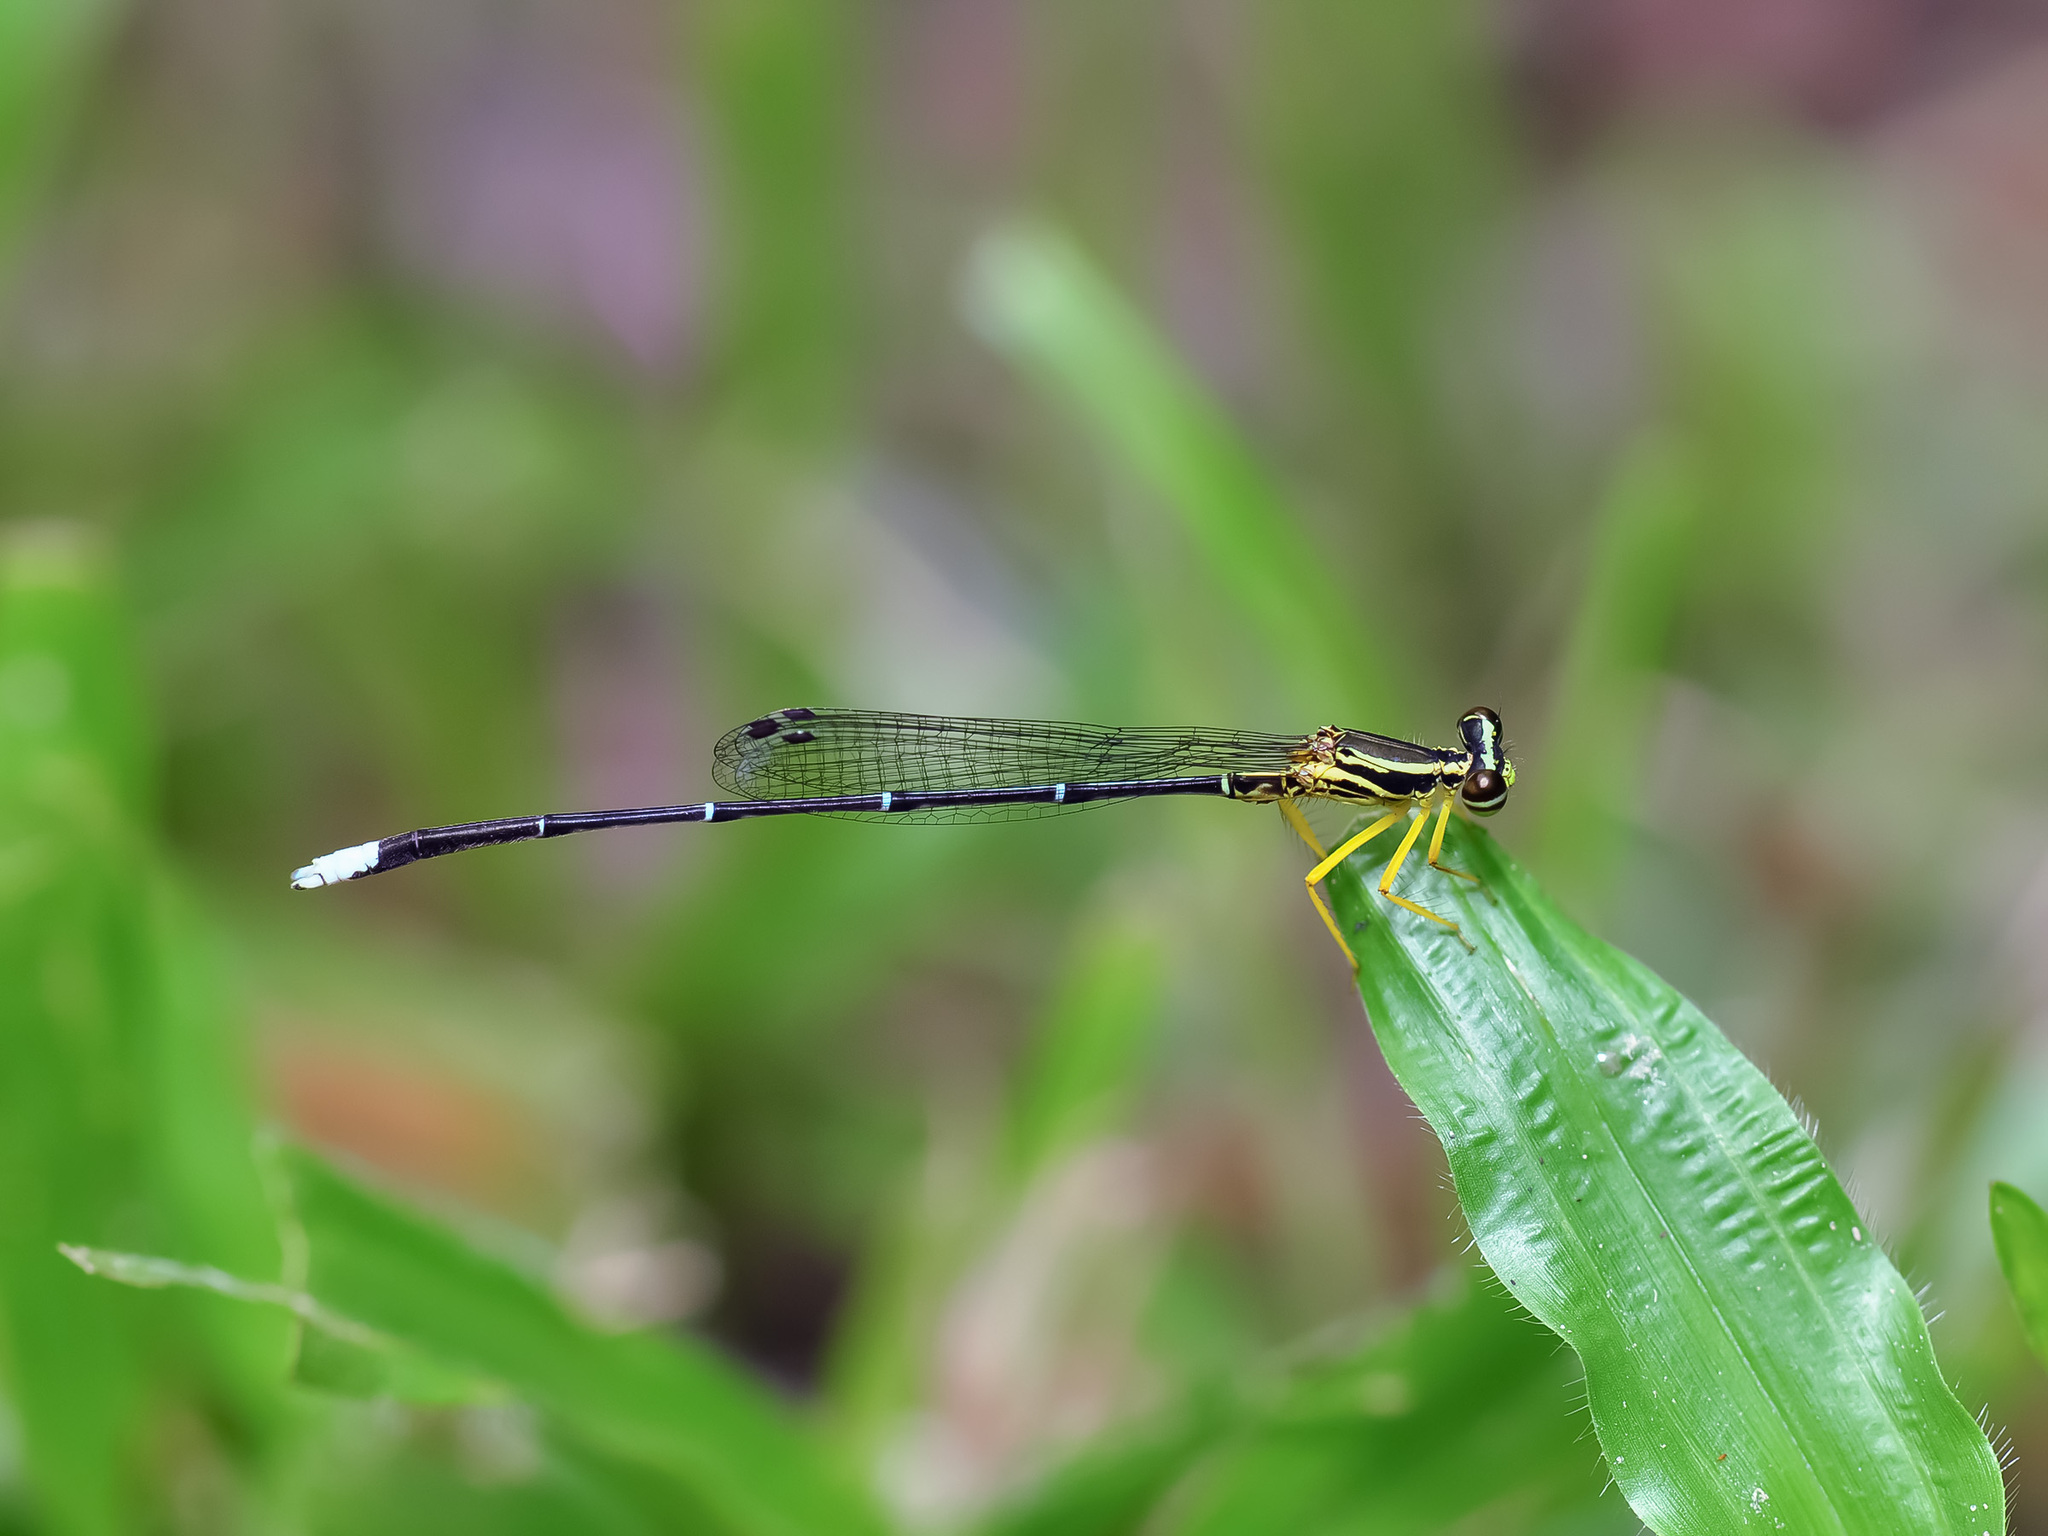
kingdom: Animalia
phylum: Arthropoda
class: Insecta
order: Odonata
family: Platycnemididae
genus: Copera
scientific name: Copera marginipes
